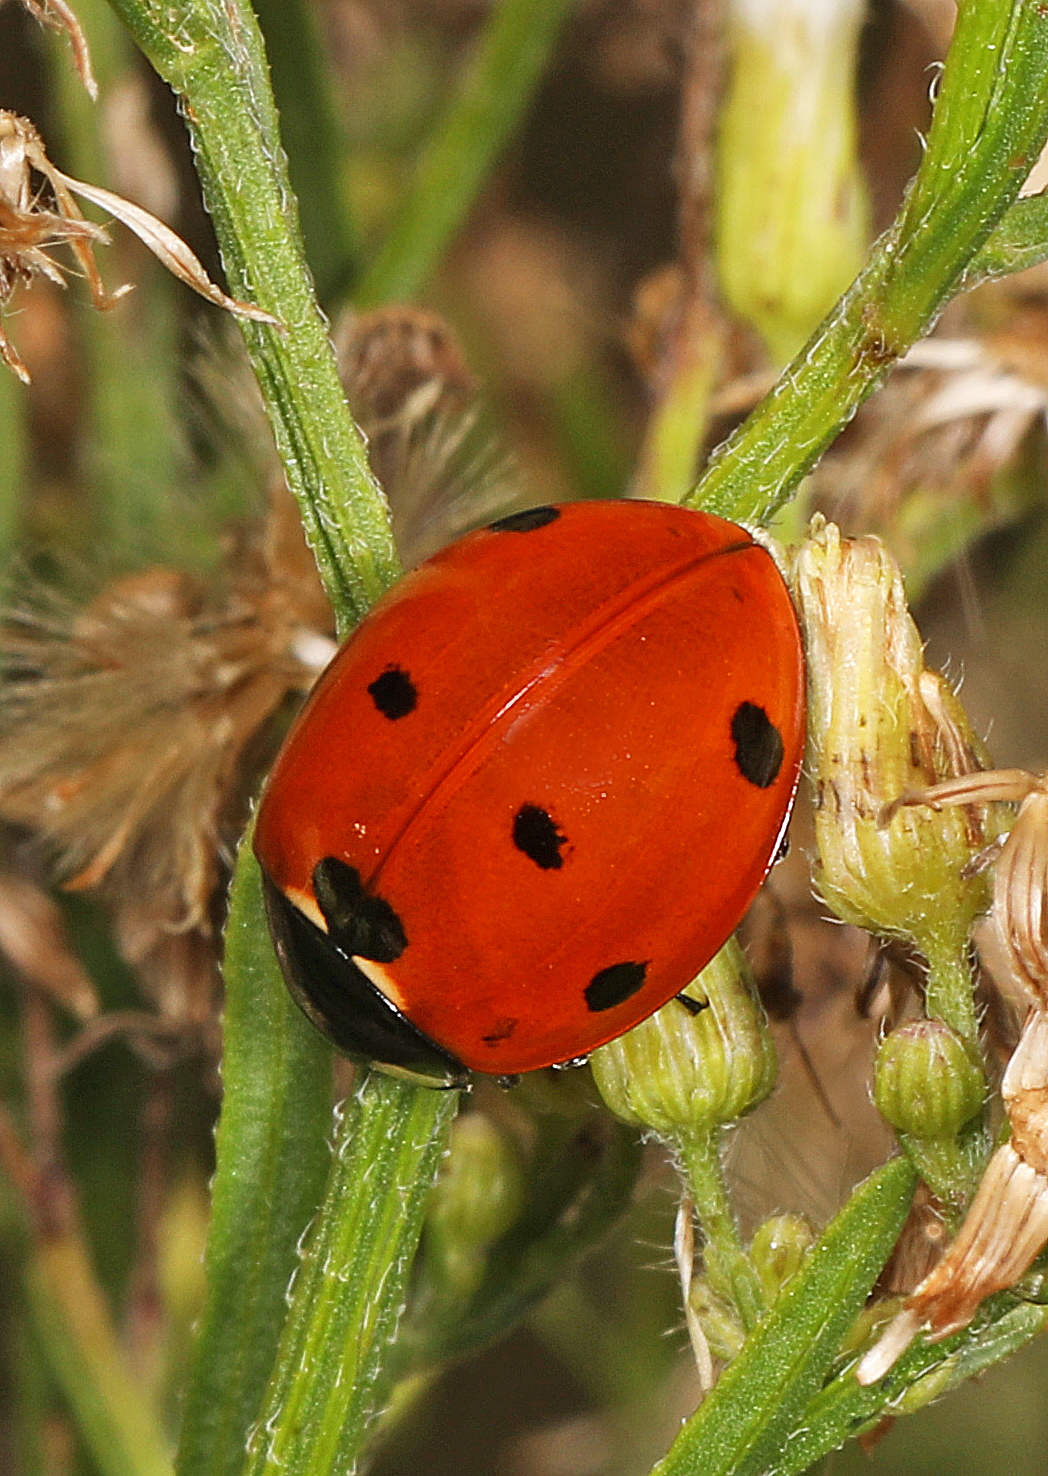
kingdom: Animalia
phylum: Arthropoda
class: Insecta
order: Coleoptera
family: Coccinellidae
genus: Coccinella
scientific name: Coccinella septempunctata
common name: Sevenspotted lady beetle
